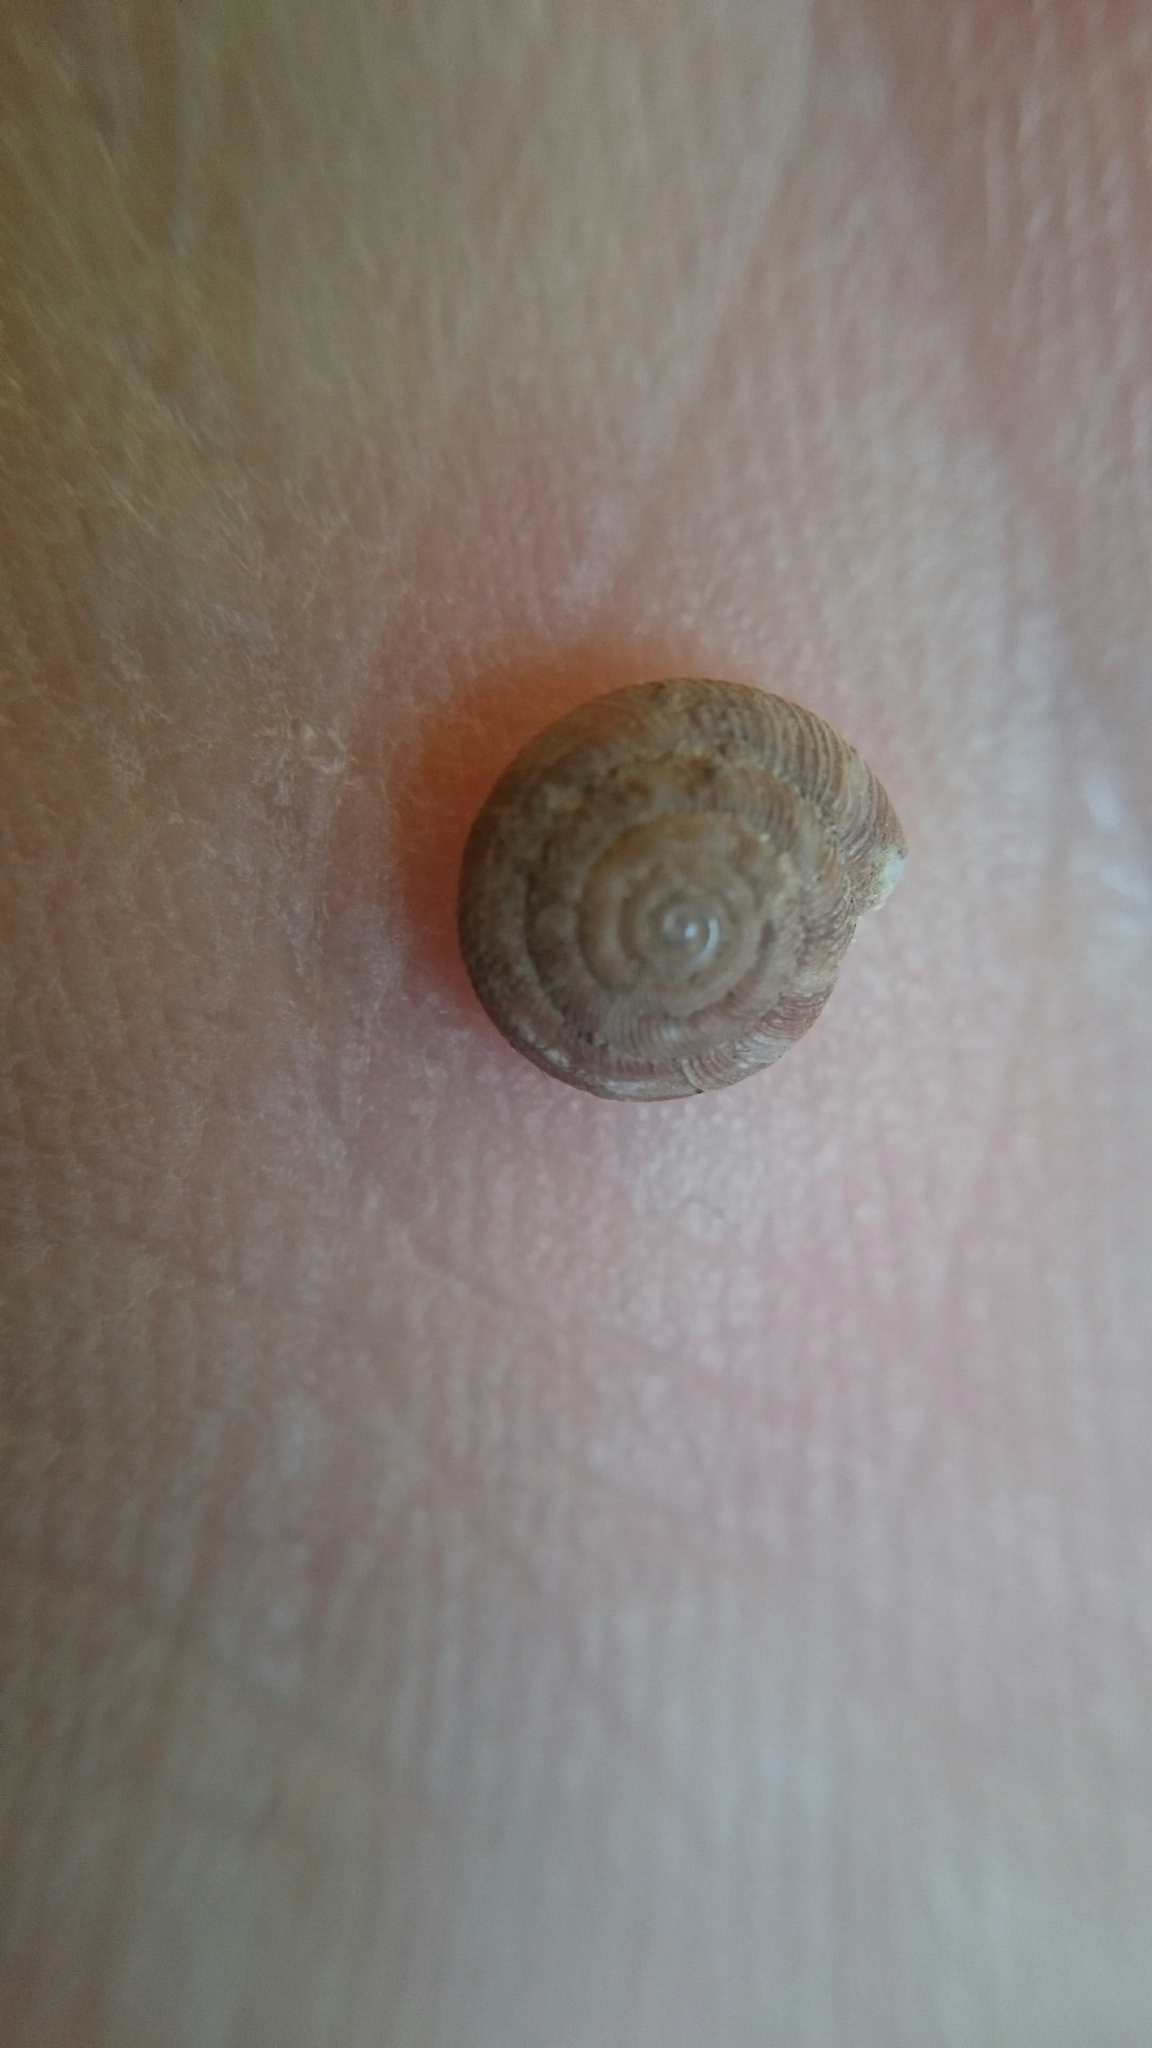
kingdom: Animalia
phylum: Mollusca
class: Gastropoda
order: Stylommatophora
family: Discidae
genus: Discus
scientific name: Discus rotundatus
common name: Rounded snail
